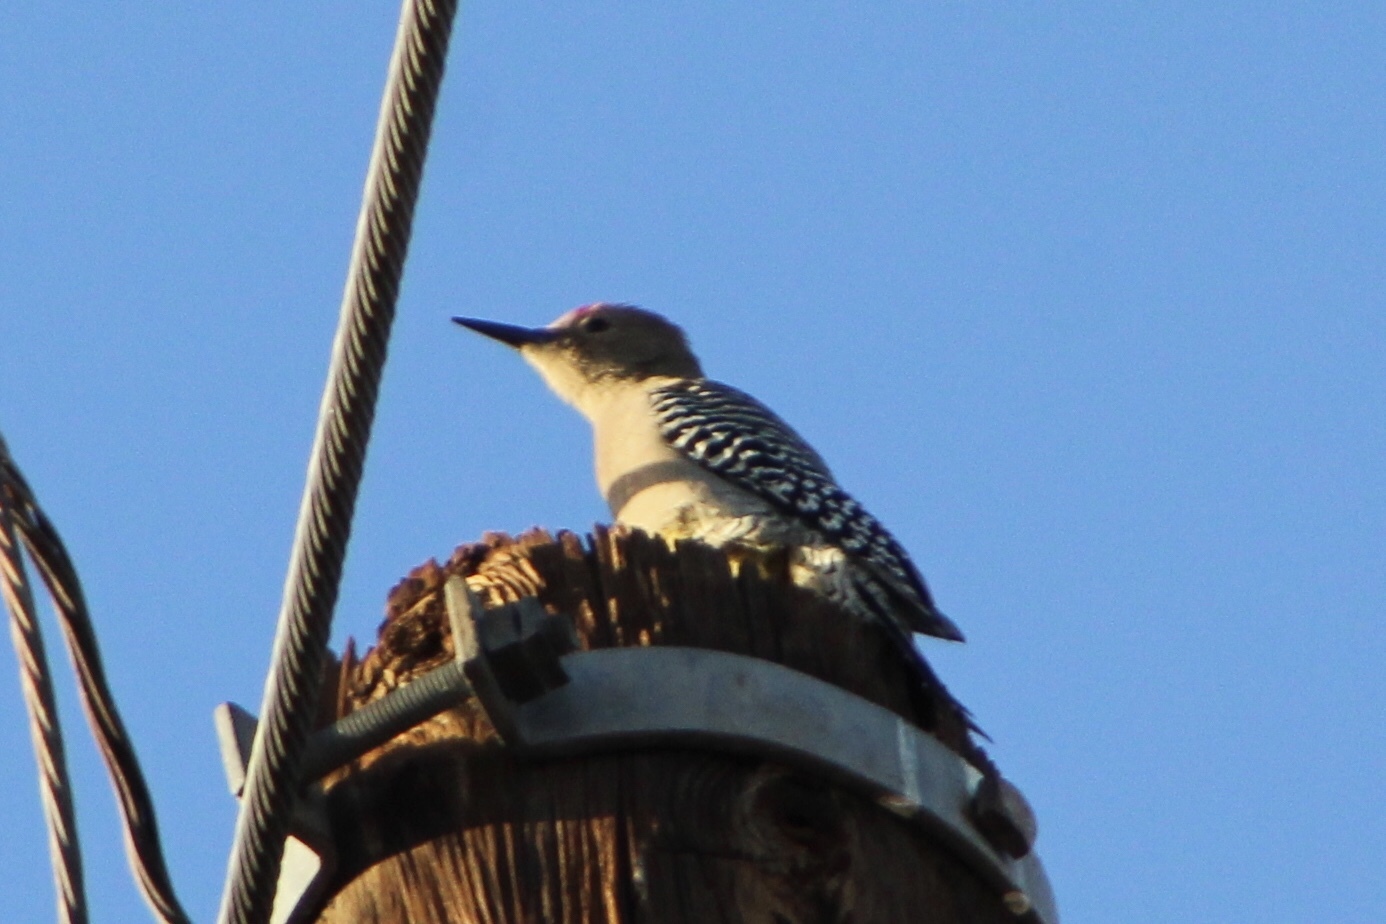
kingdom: Animalia
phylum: Chordata
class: Aves
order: Piciformes
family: Picidae
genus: Melanerpes
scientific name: Melanerpes uropygialis
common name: Gila woodpecker
